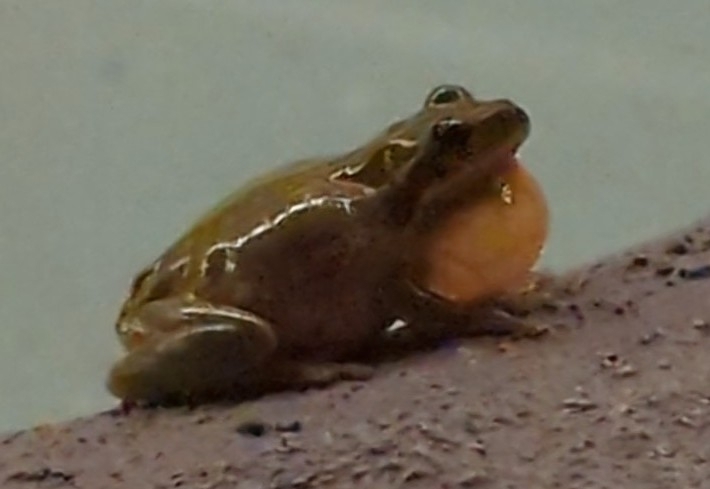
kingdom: Animalia
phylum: Chordata
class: Amphibia
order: Anura
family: Hylidae
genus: Dryophytes
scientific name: Dryophytes squirellus
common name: Squirrel treefrog
